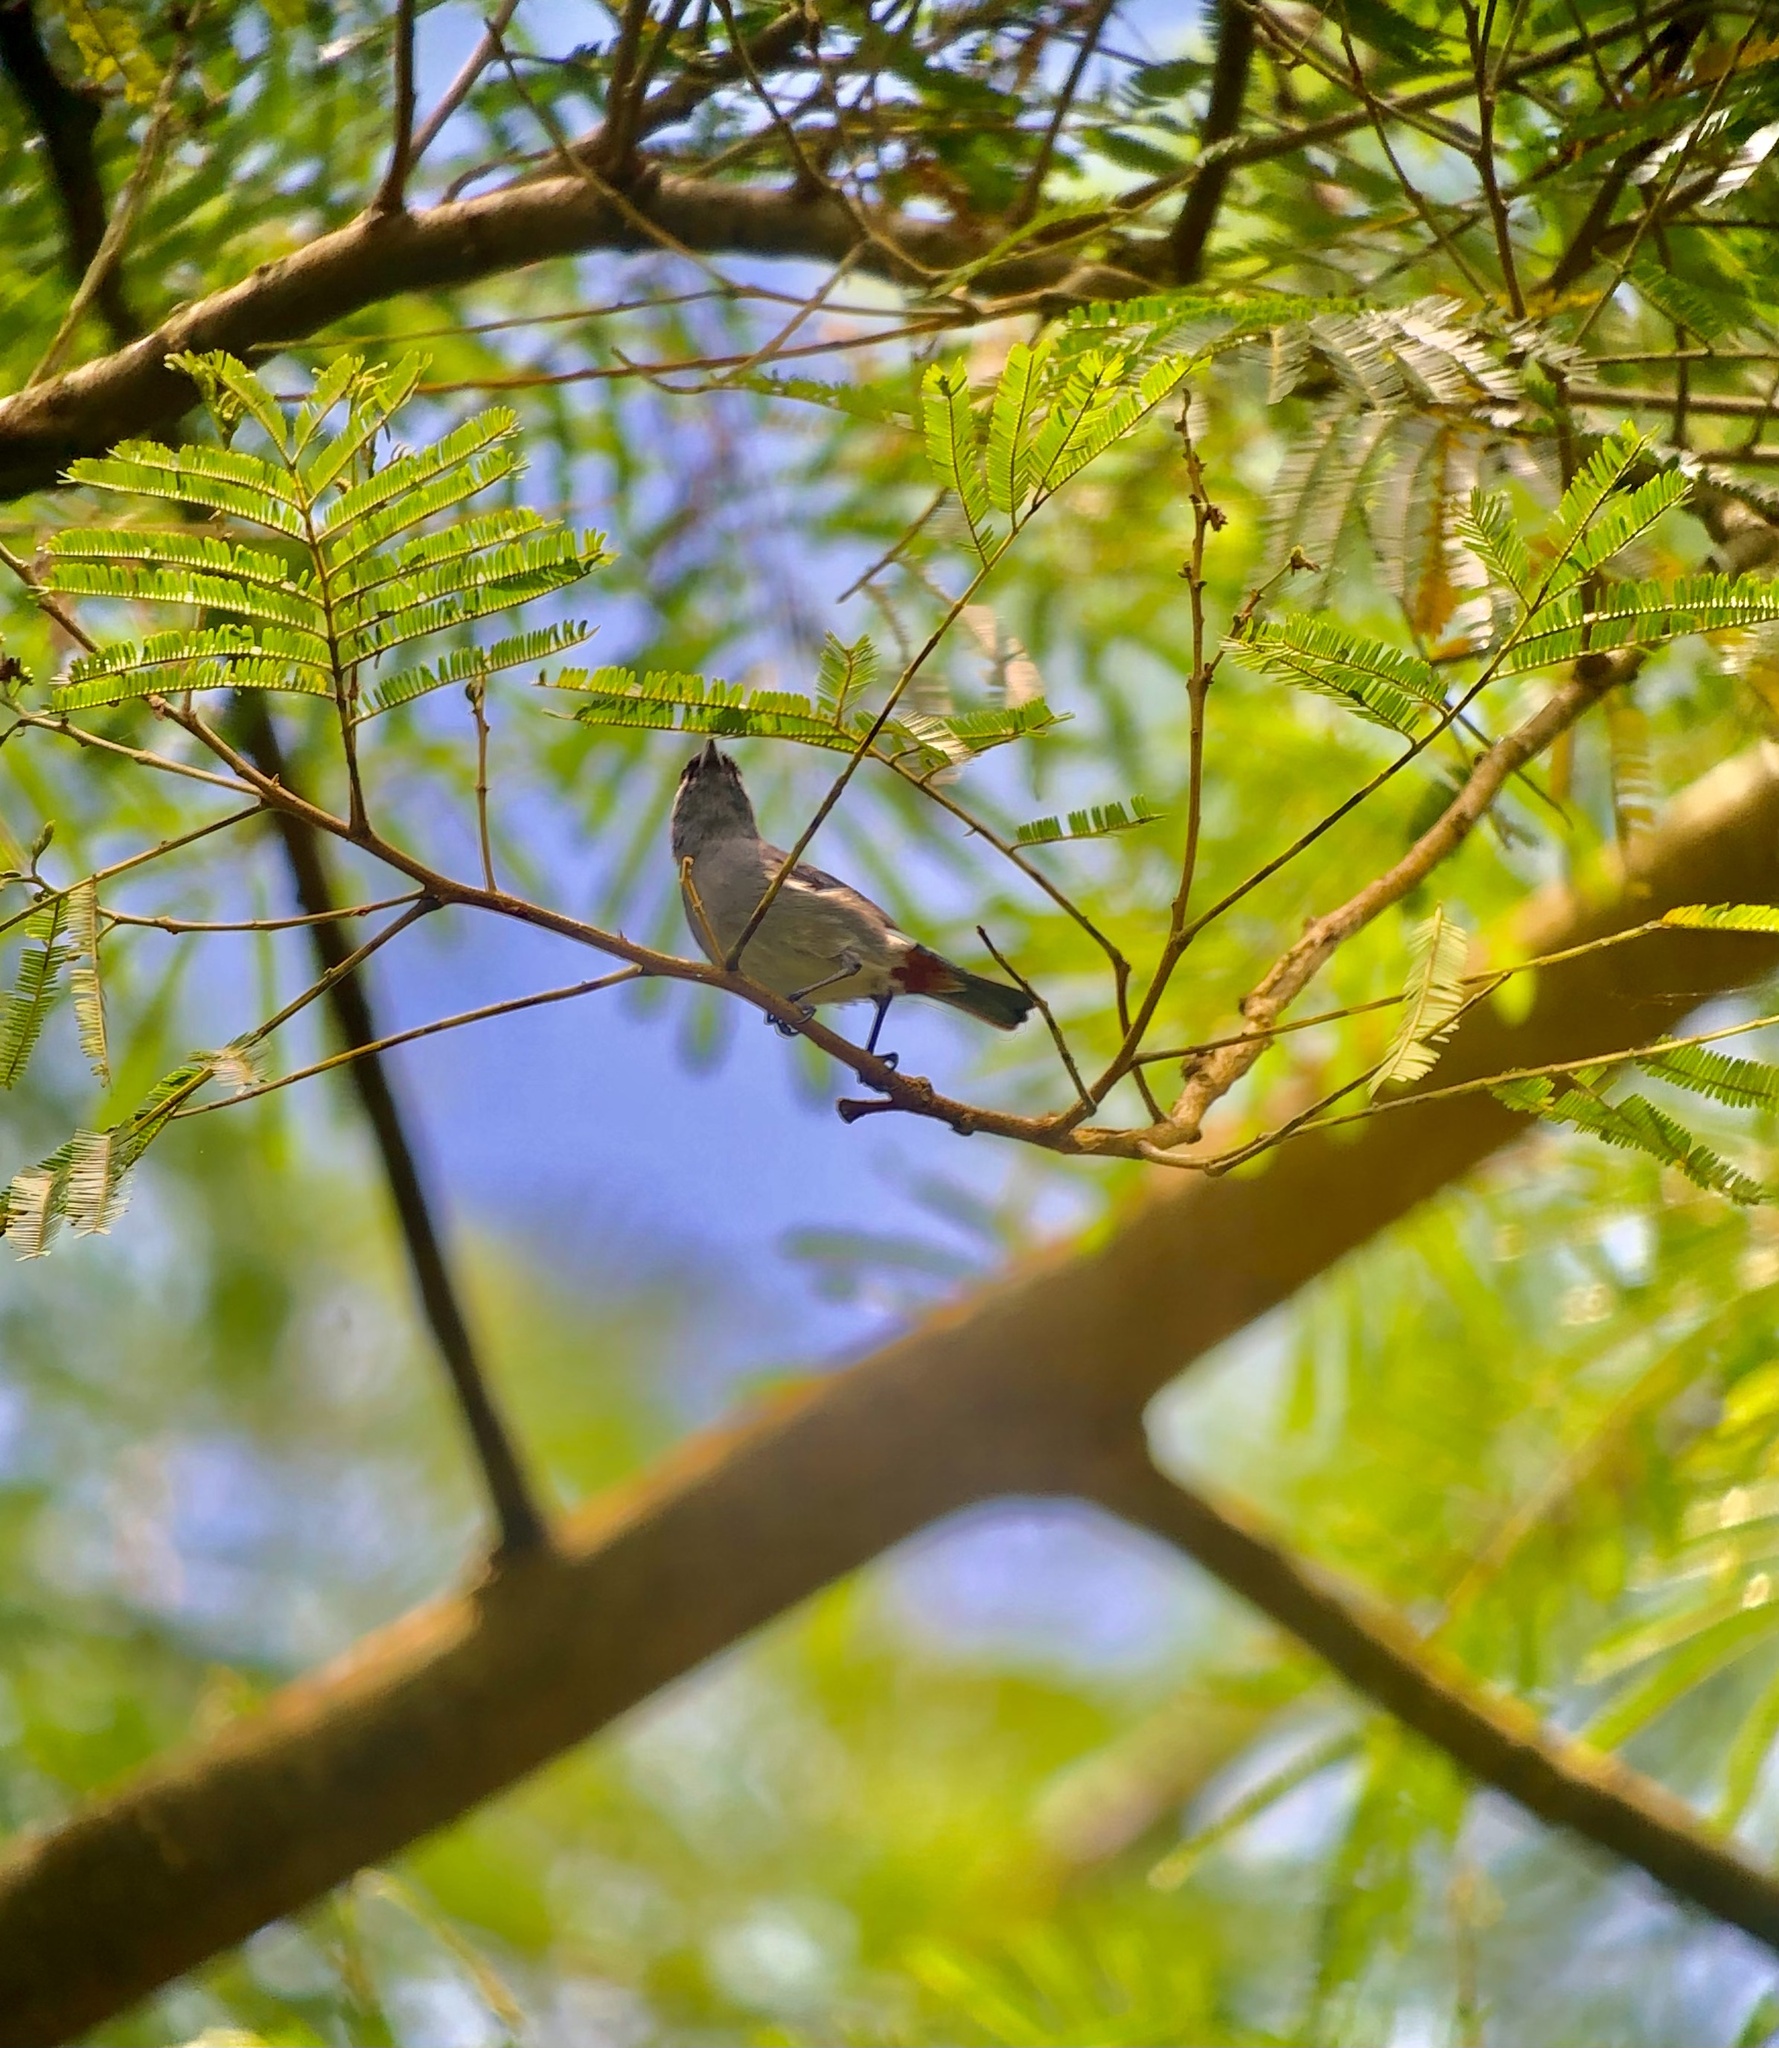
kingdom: Animalia
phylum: Chordata
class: Aves
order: Passeriformes
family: Thraupidae
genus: Conirostrum
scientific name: Conirostrum leucogenys
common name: White-eared conebill
